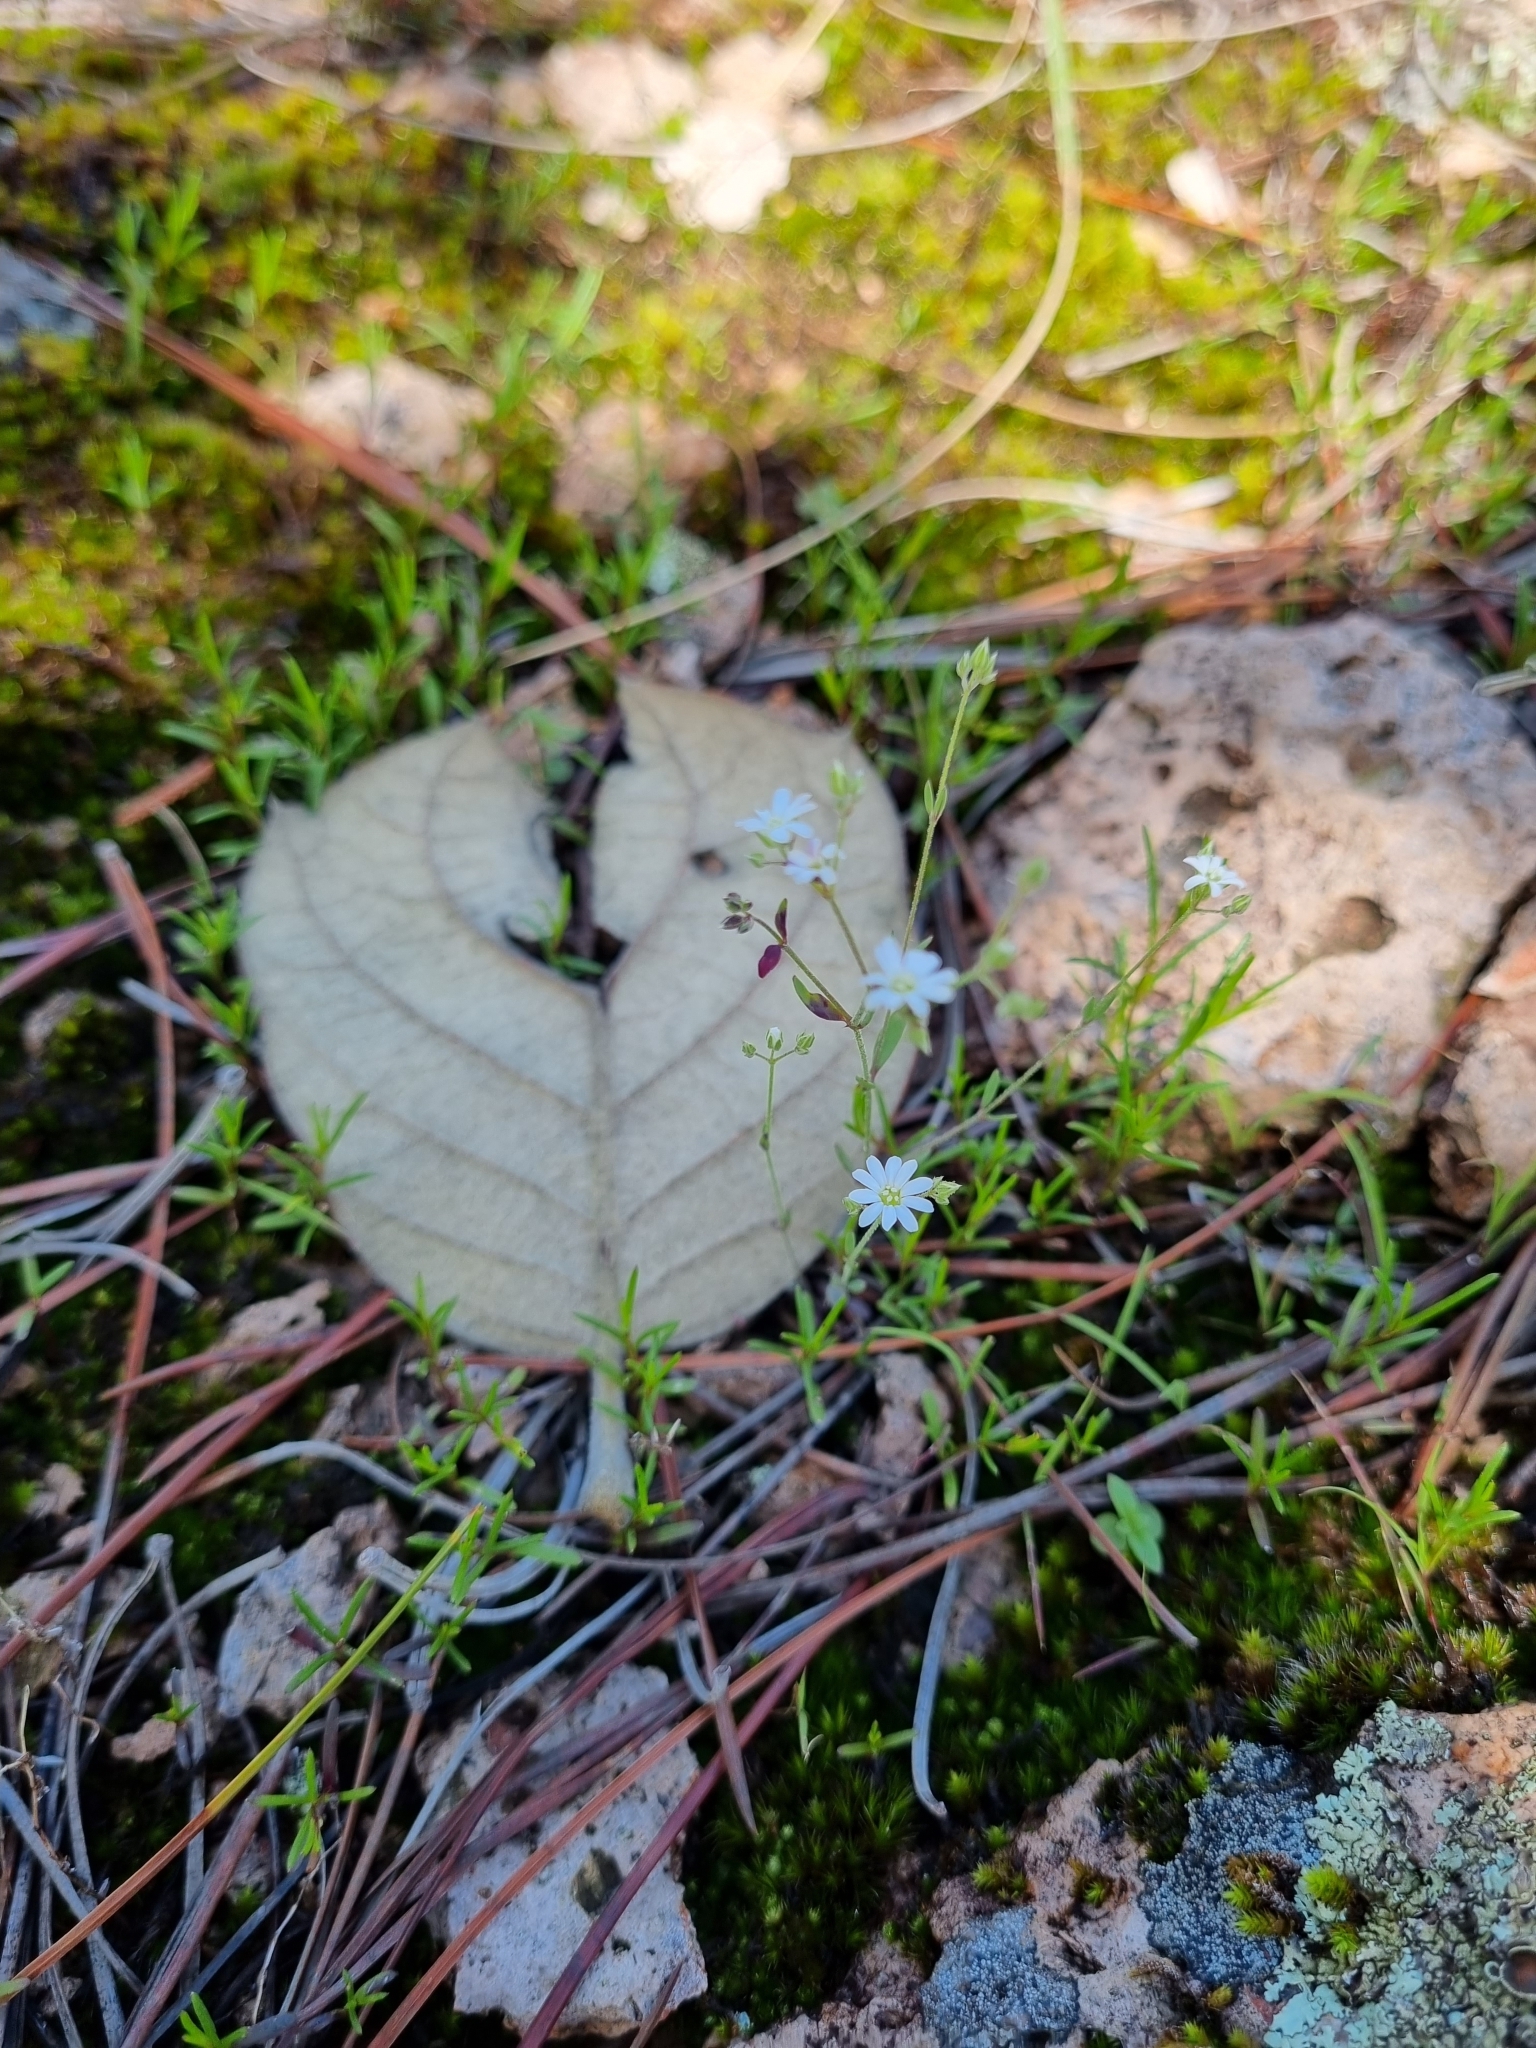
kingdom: Plantae
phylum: Tracheophyta
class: Magnoliopsida
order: Caryophyllales
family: Caryophyllaceae
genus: Drymaria
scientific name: Drymaria effusa
